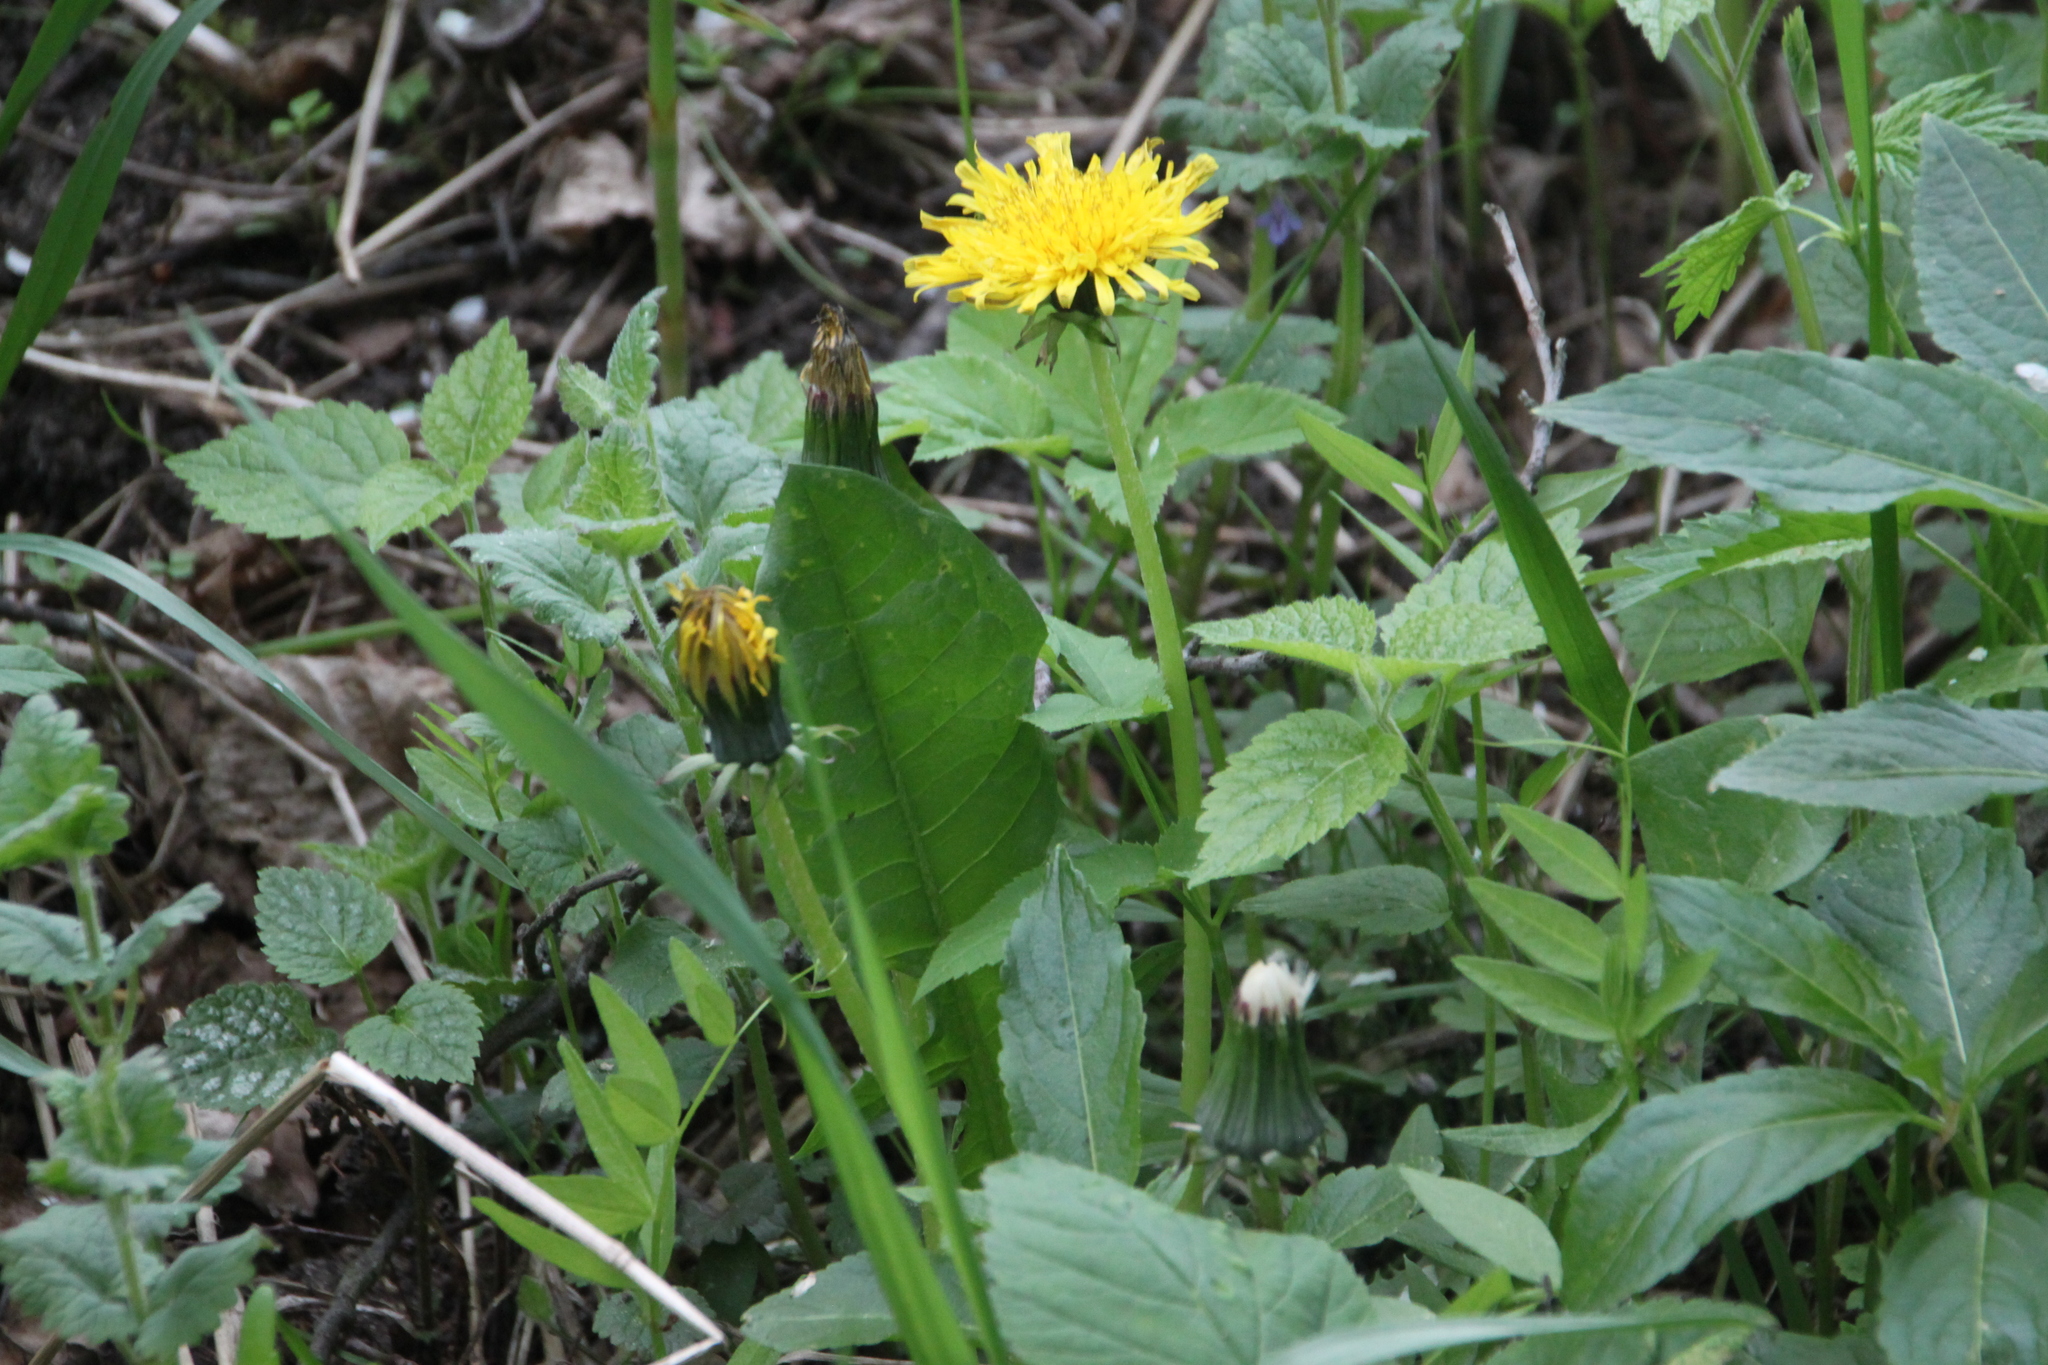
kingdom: Plantae
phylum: Tracheophyta
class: Magnoliopsida
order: Asterales
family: Asteraceae
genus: Taraxacum
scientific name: Taraxacum officinale
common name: Common dandelion
